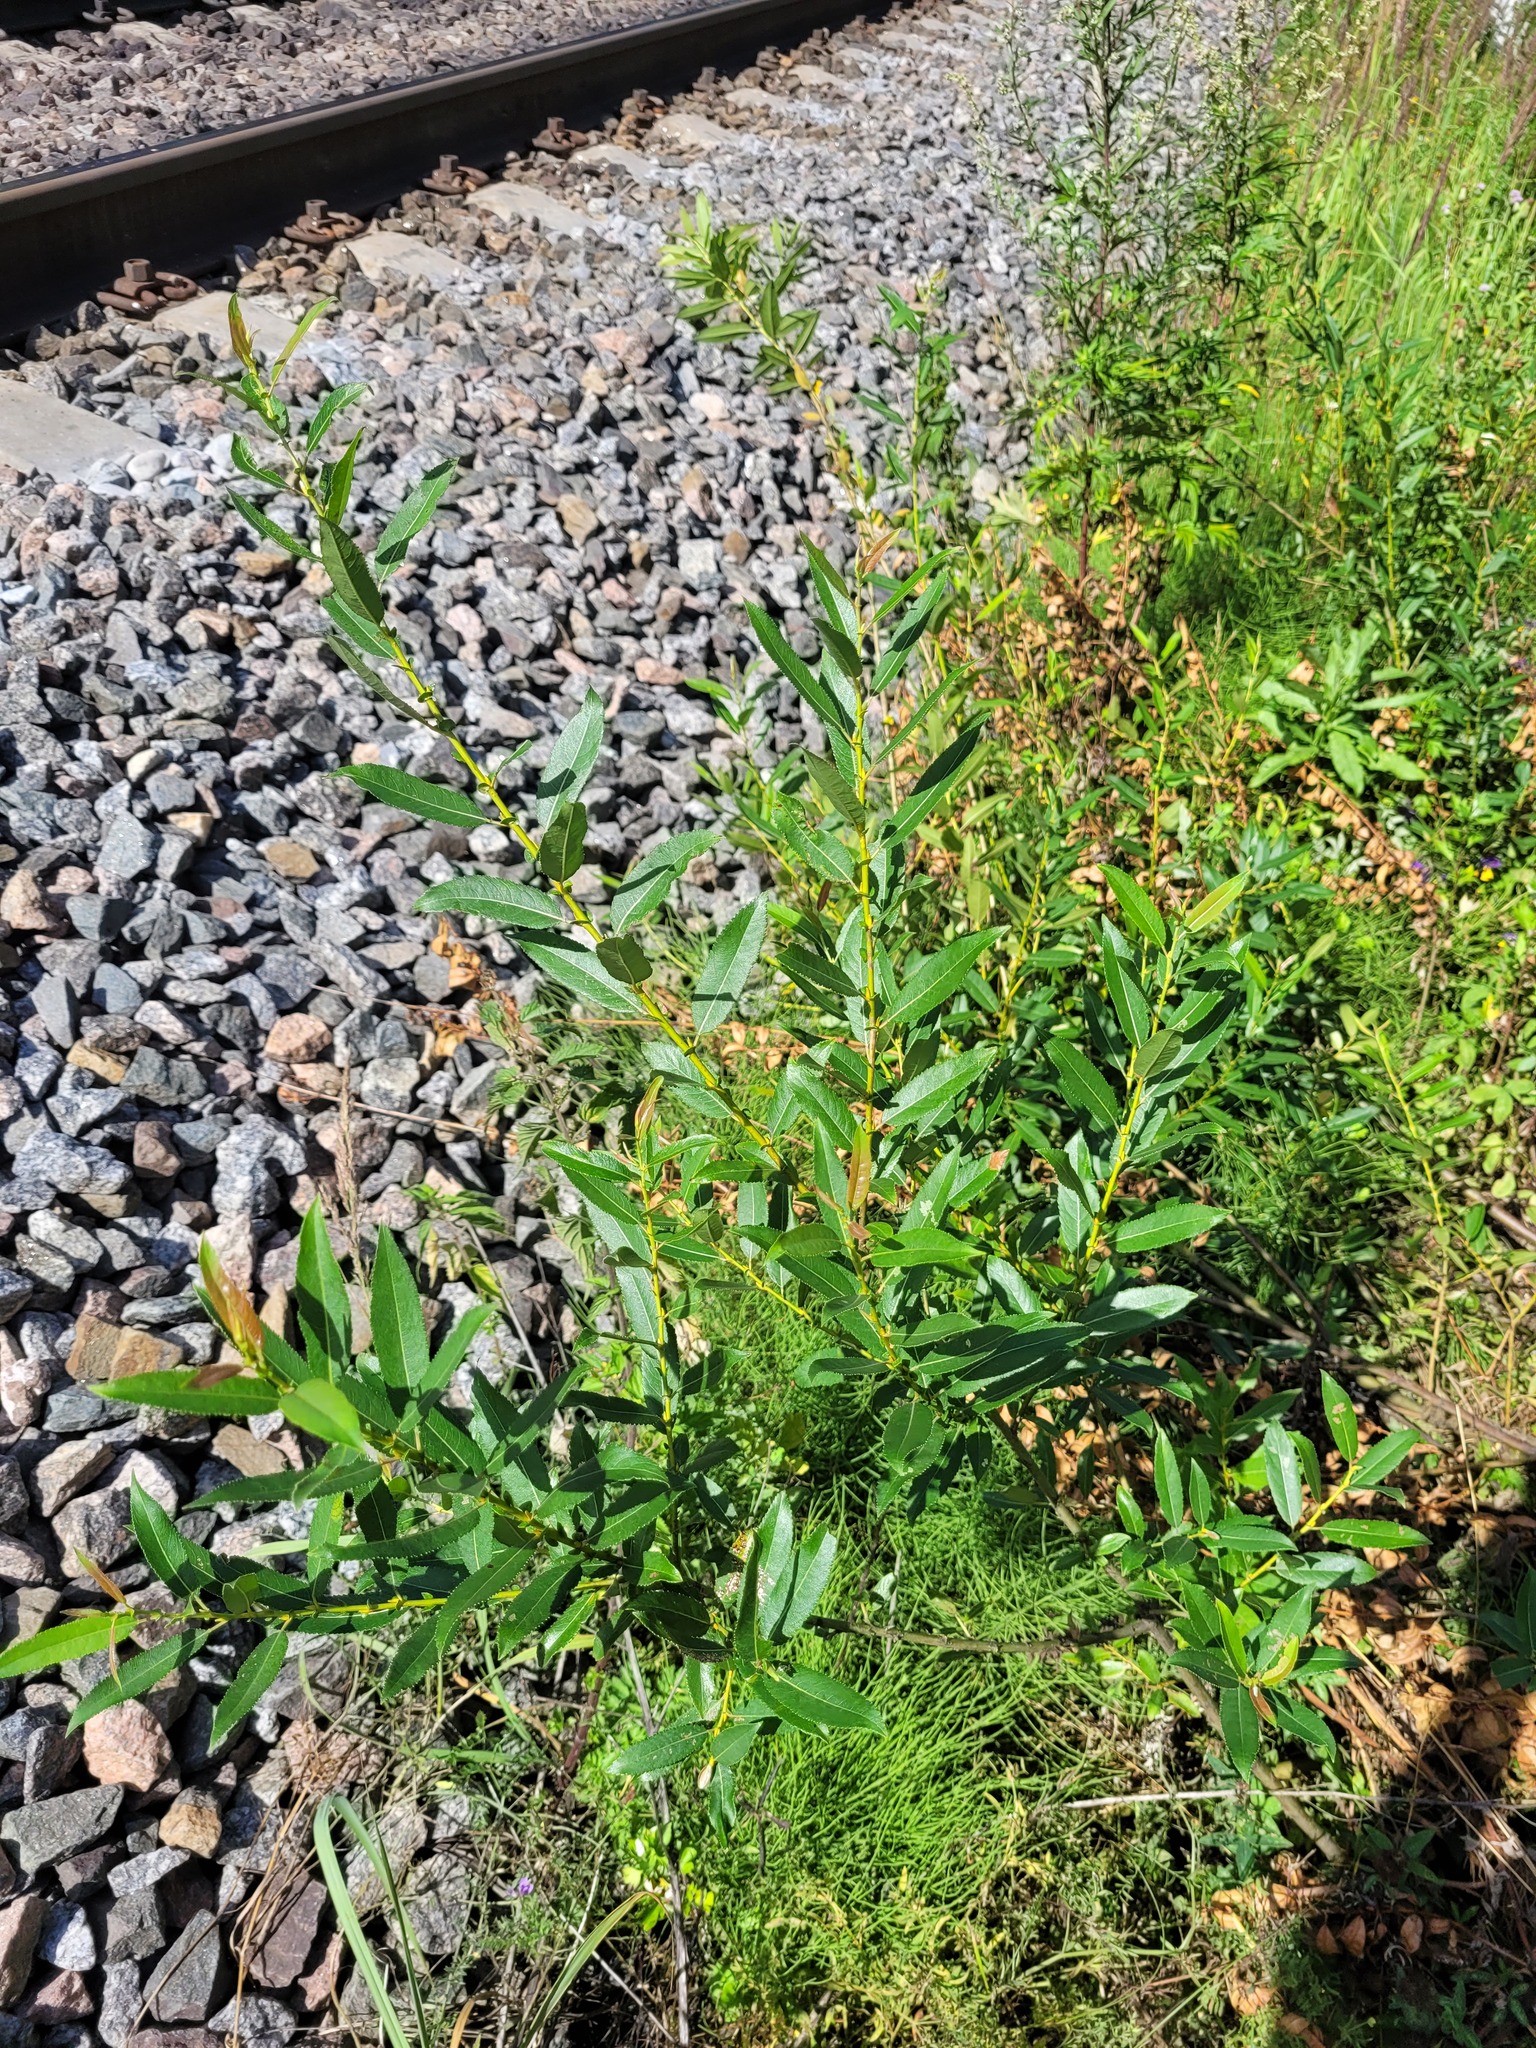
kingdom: Plantae
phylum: Tracheophyta
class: Magnoliopsida
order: Malpighiales
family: Salicaceae
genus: Salix
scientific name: Salix triandra
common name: Almond willow
